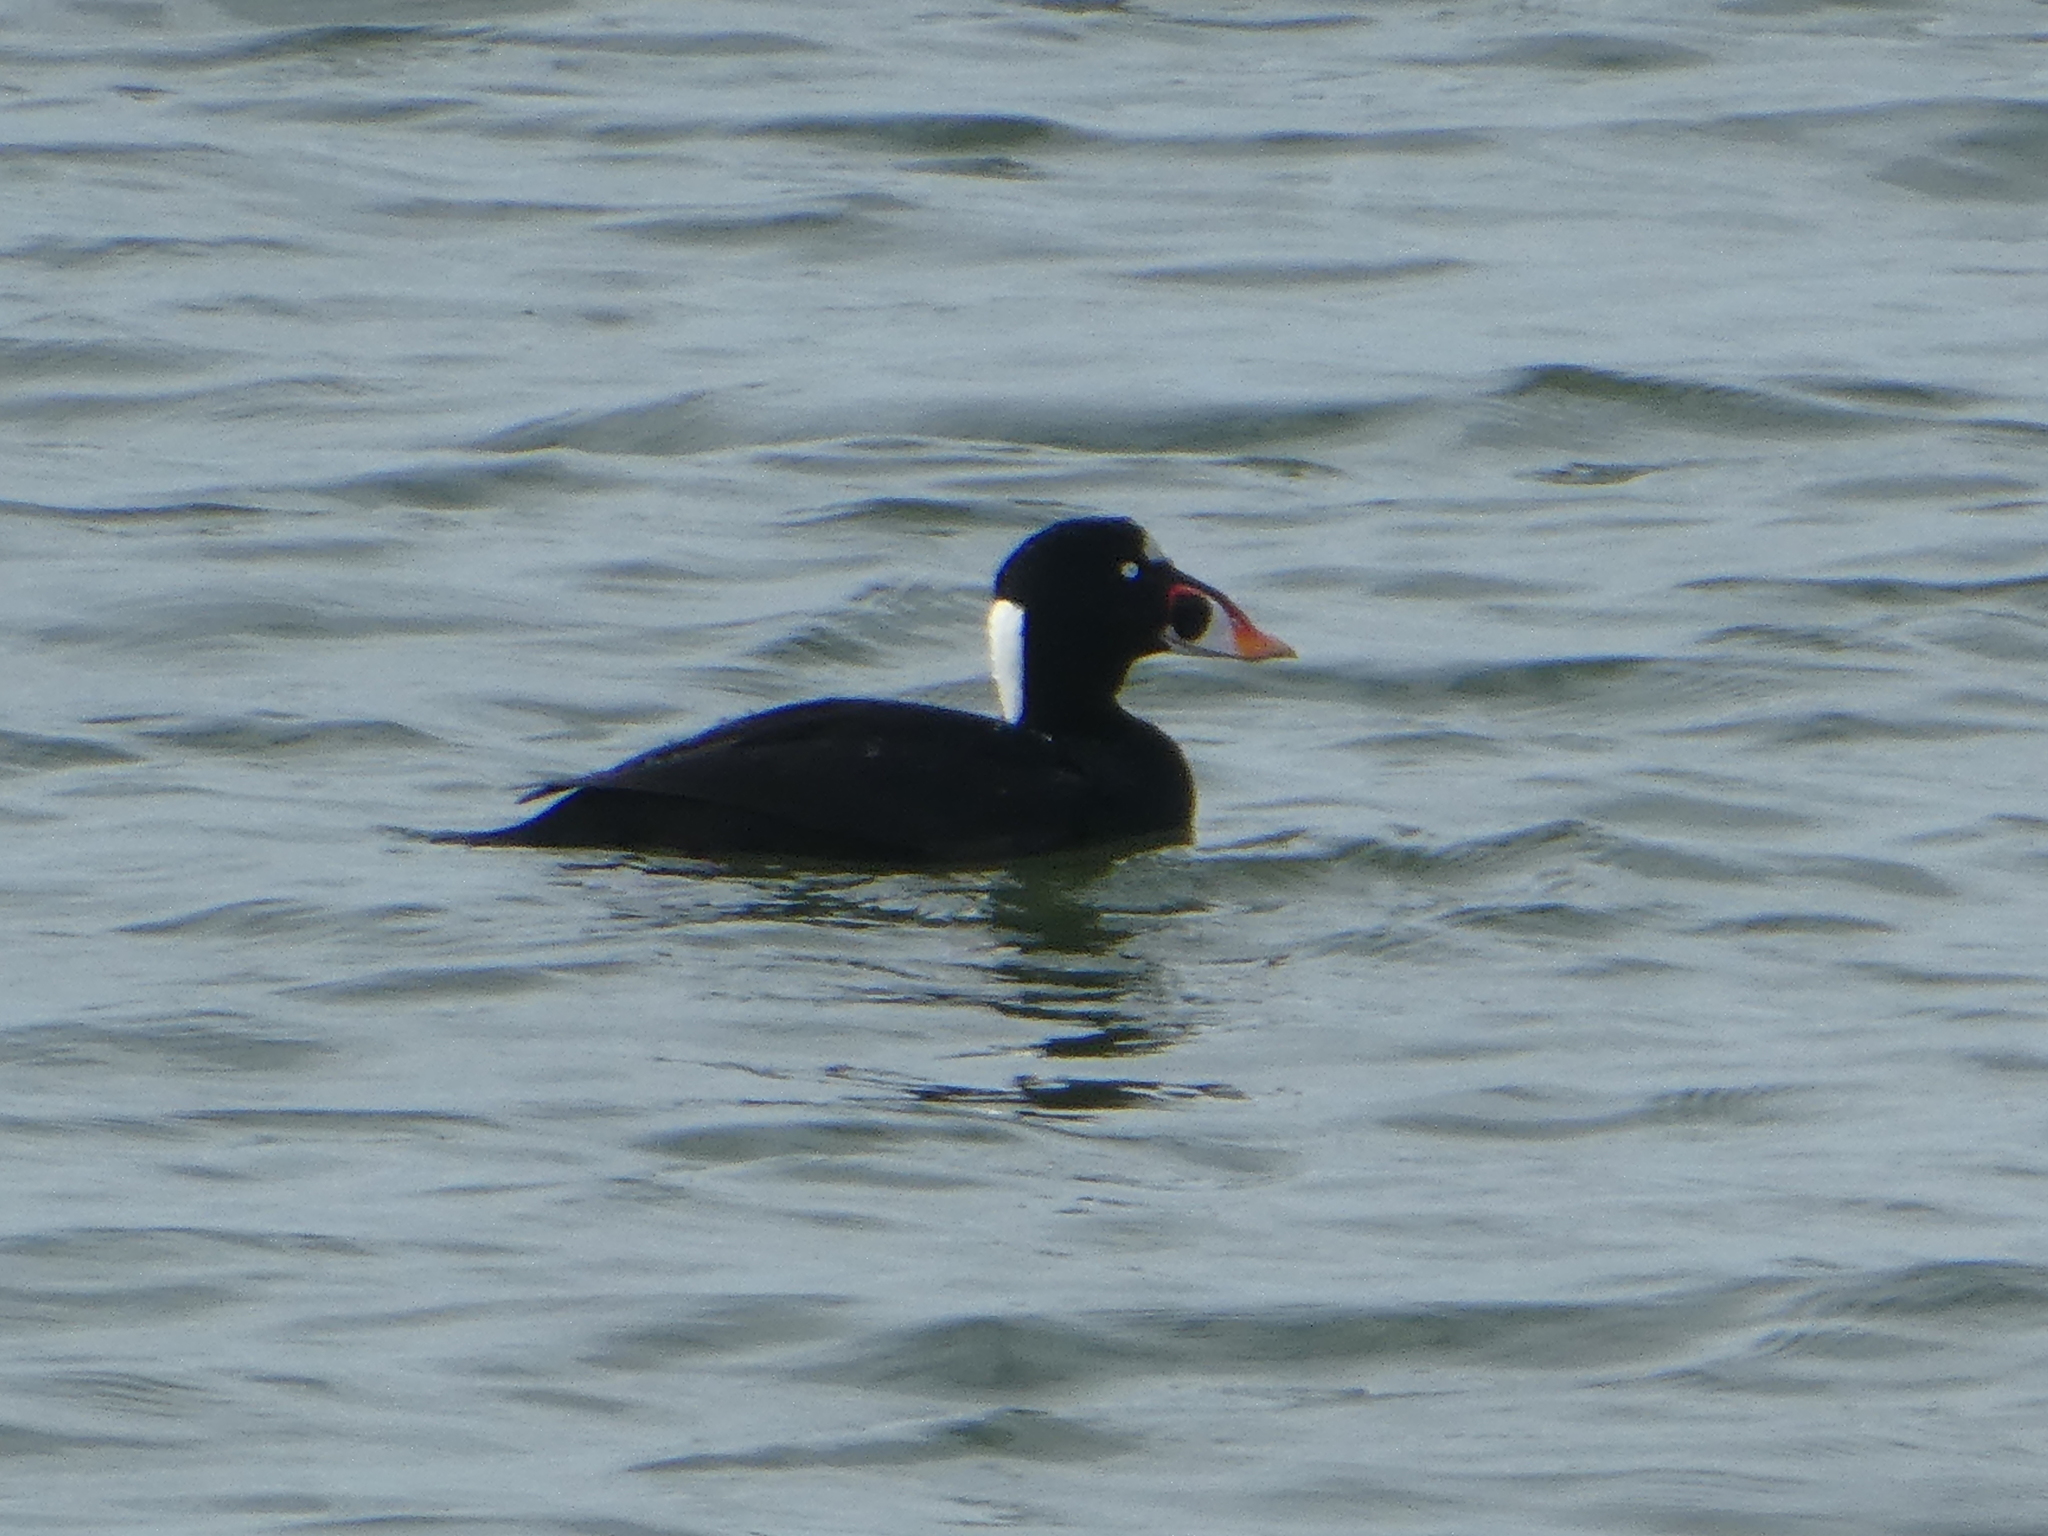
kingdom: Animalia
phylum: Chordata
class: Aves
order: Anseriformes
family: Anatidae
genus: Melanitta
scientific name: Melanitta perspicillata
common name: Surf scoter
